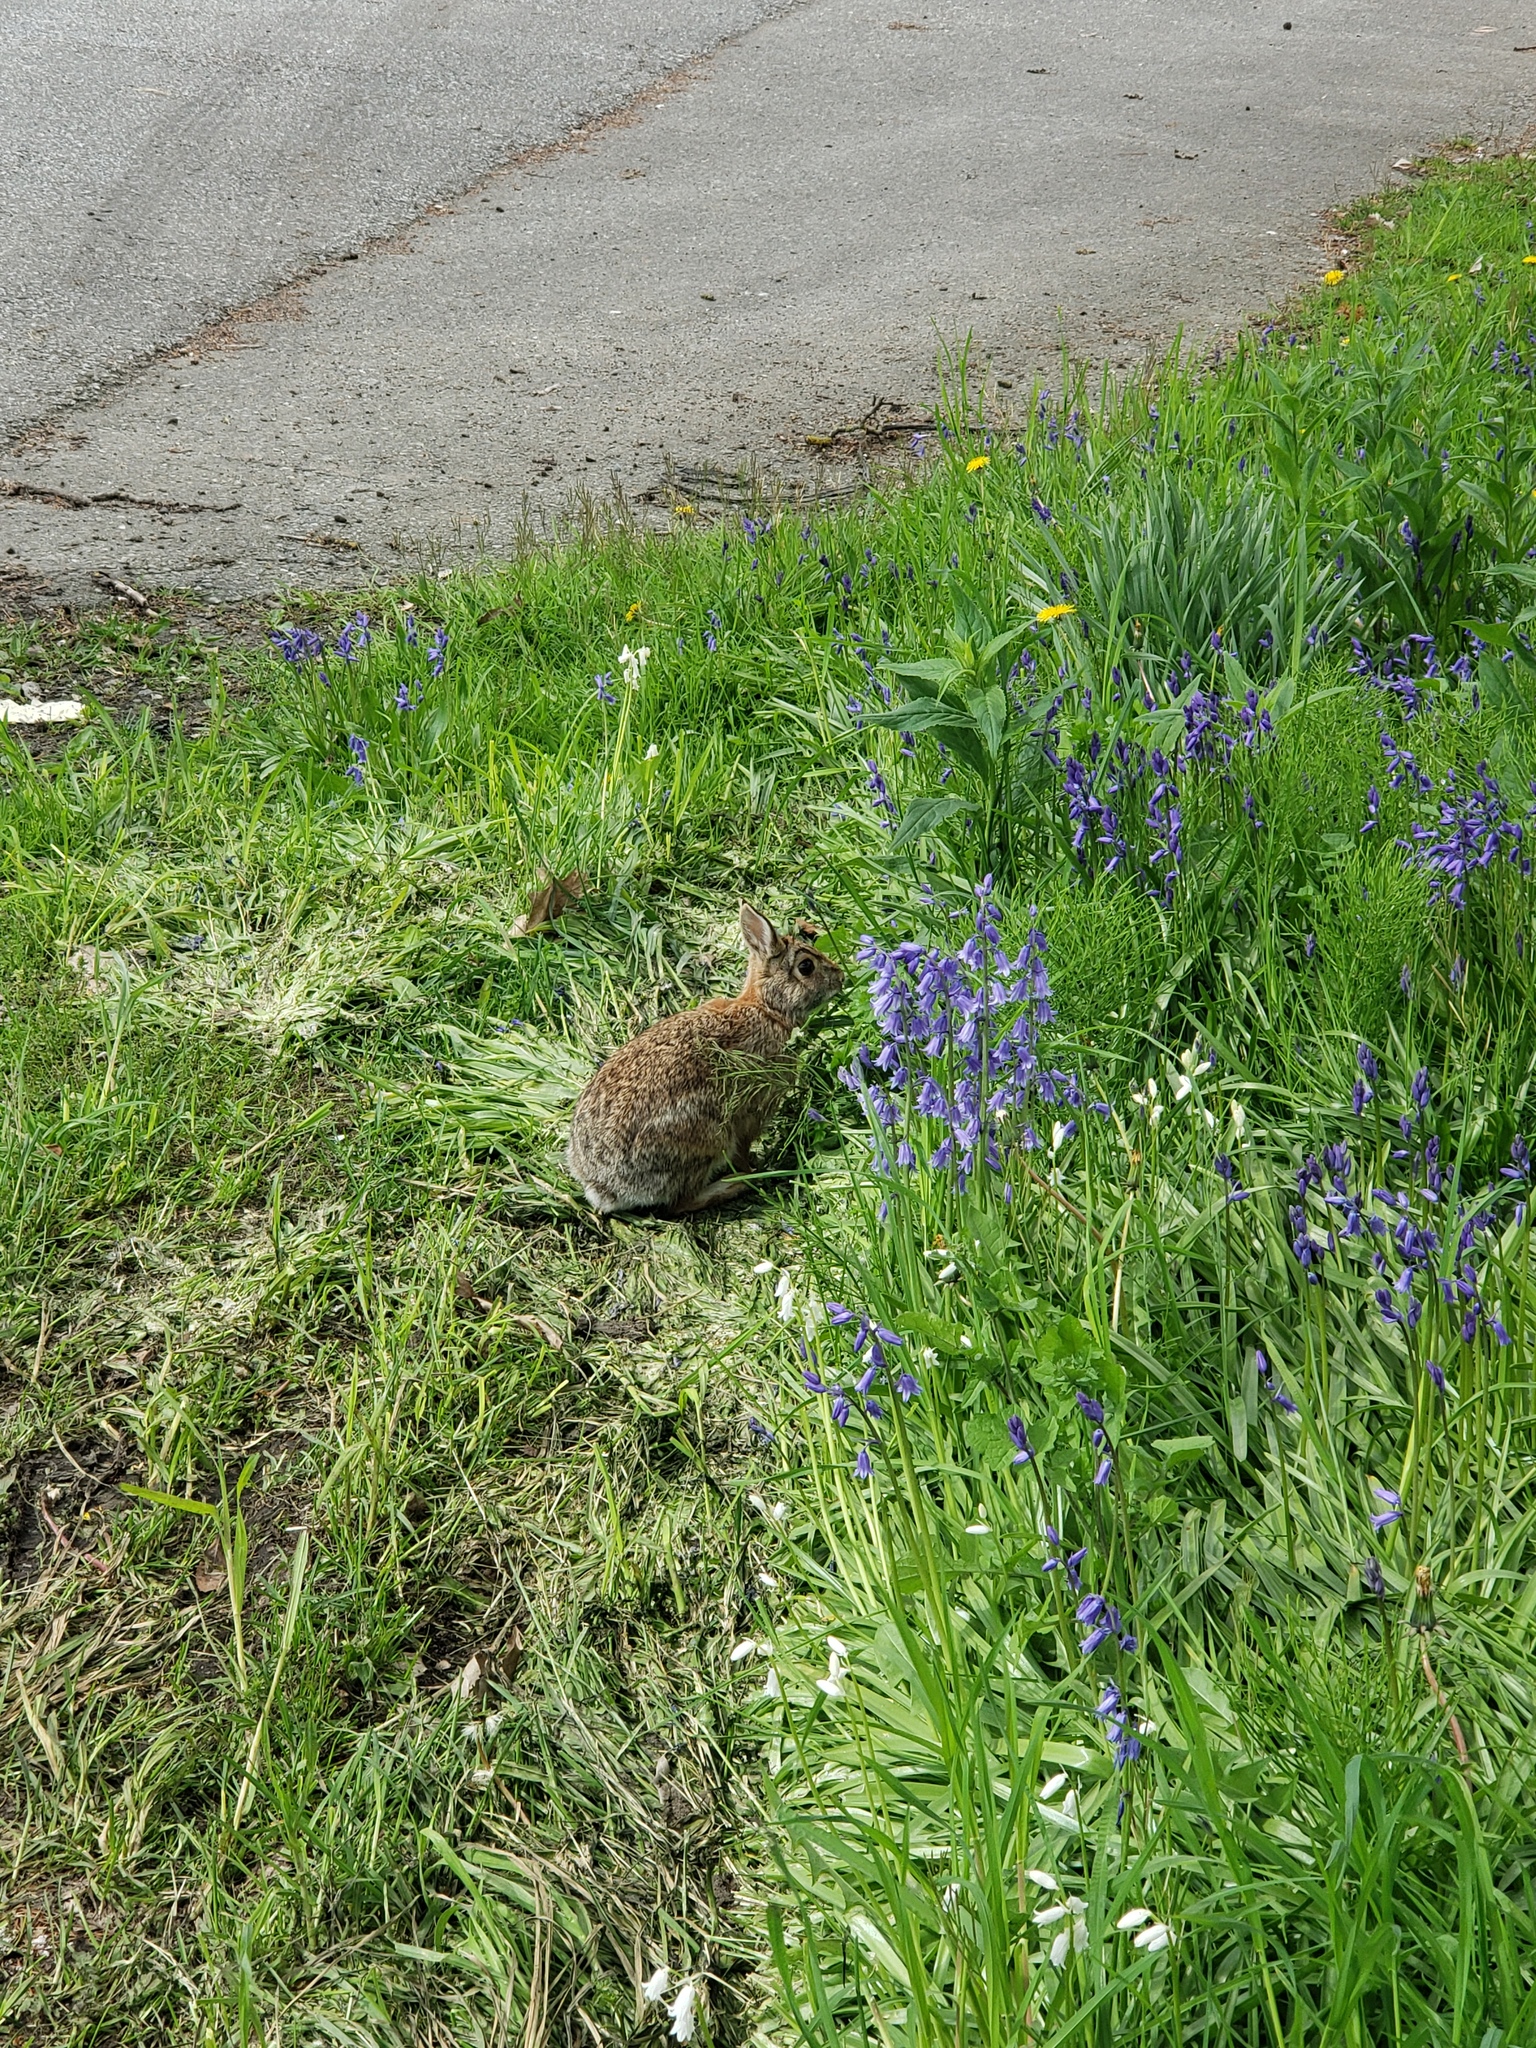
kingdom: Animalia
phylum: Chordata
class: Mammalia
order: Lagomorpha
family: Leporidae
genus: Sylvilagus
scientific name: Sylvilagus floridanus
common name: Eastern cottontail
